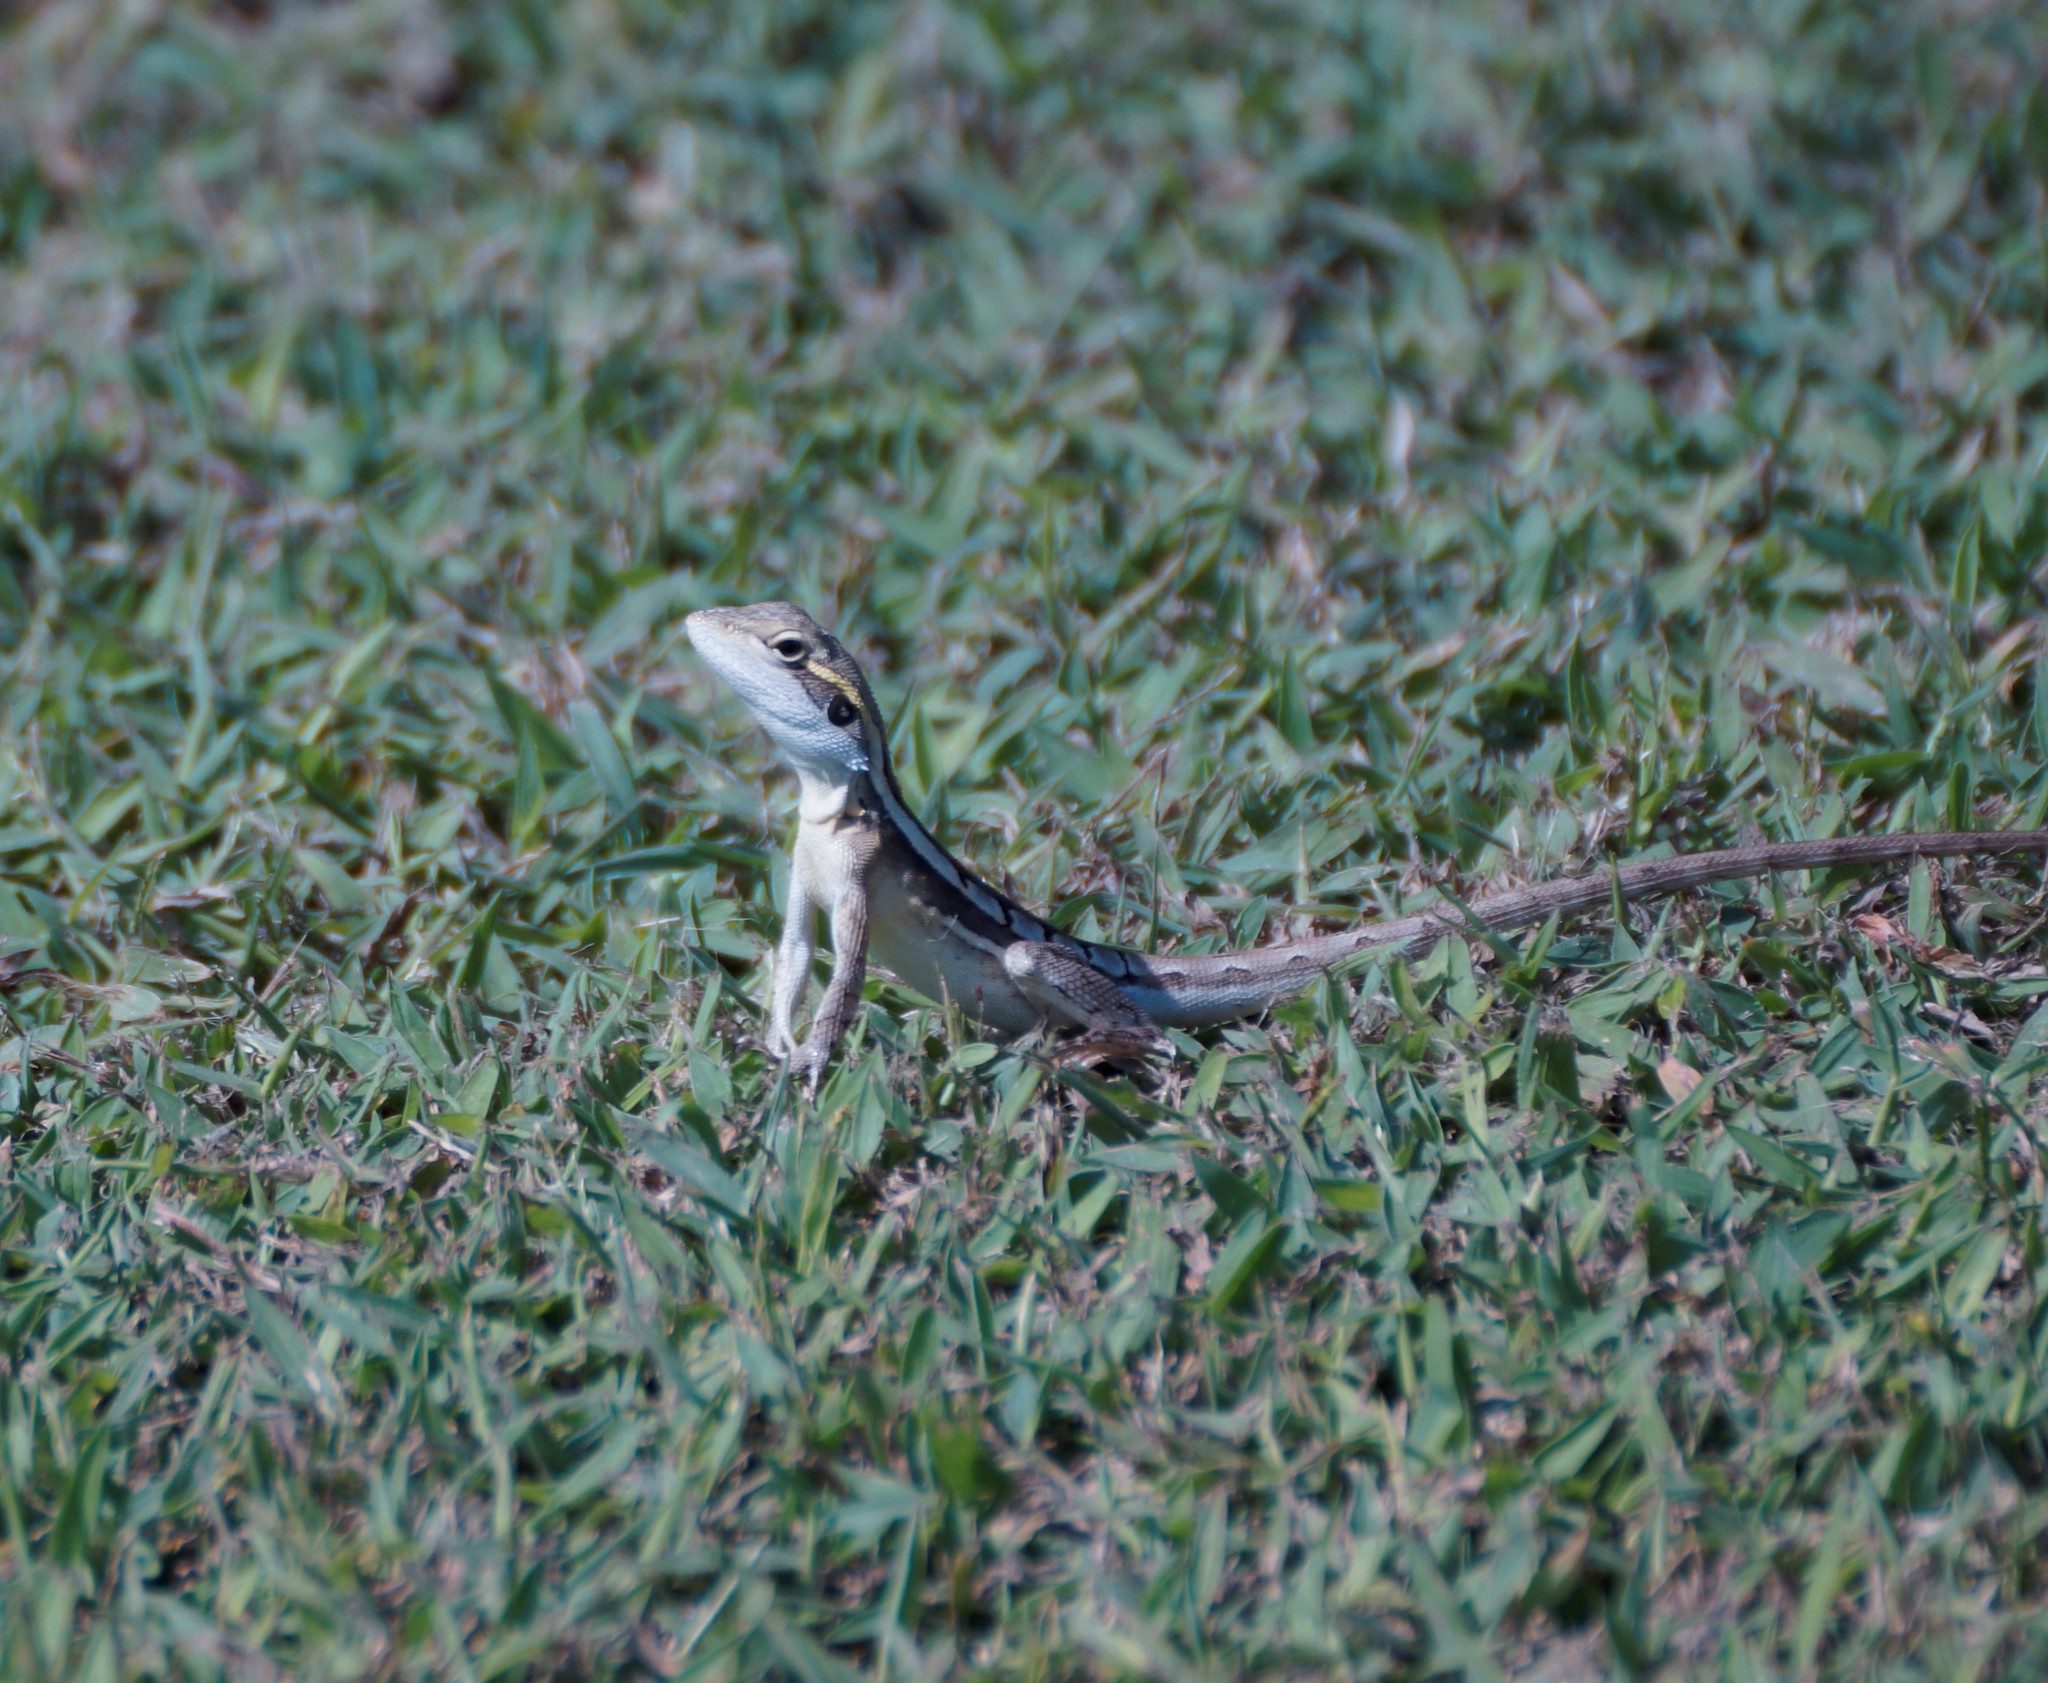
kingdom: Animalia
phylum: Chordata
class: Squamata
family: Agamidae
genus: Lophognathus
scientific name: Lophognathus horneri
